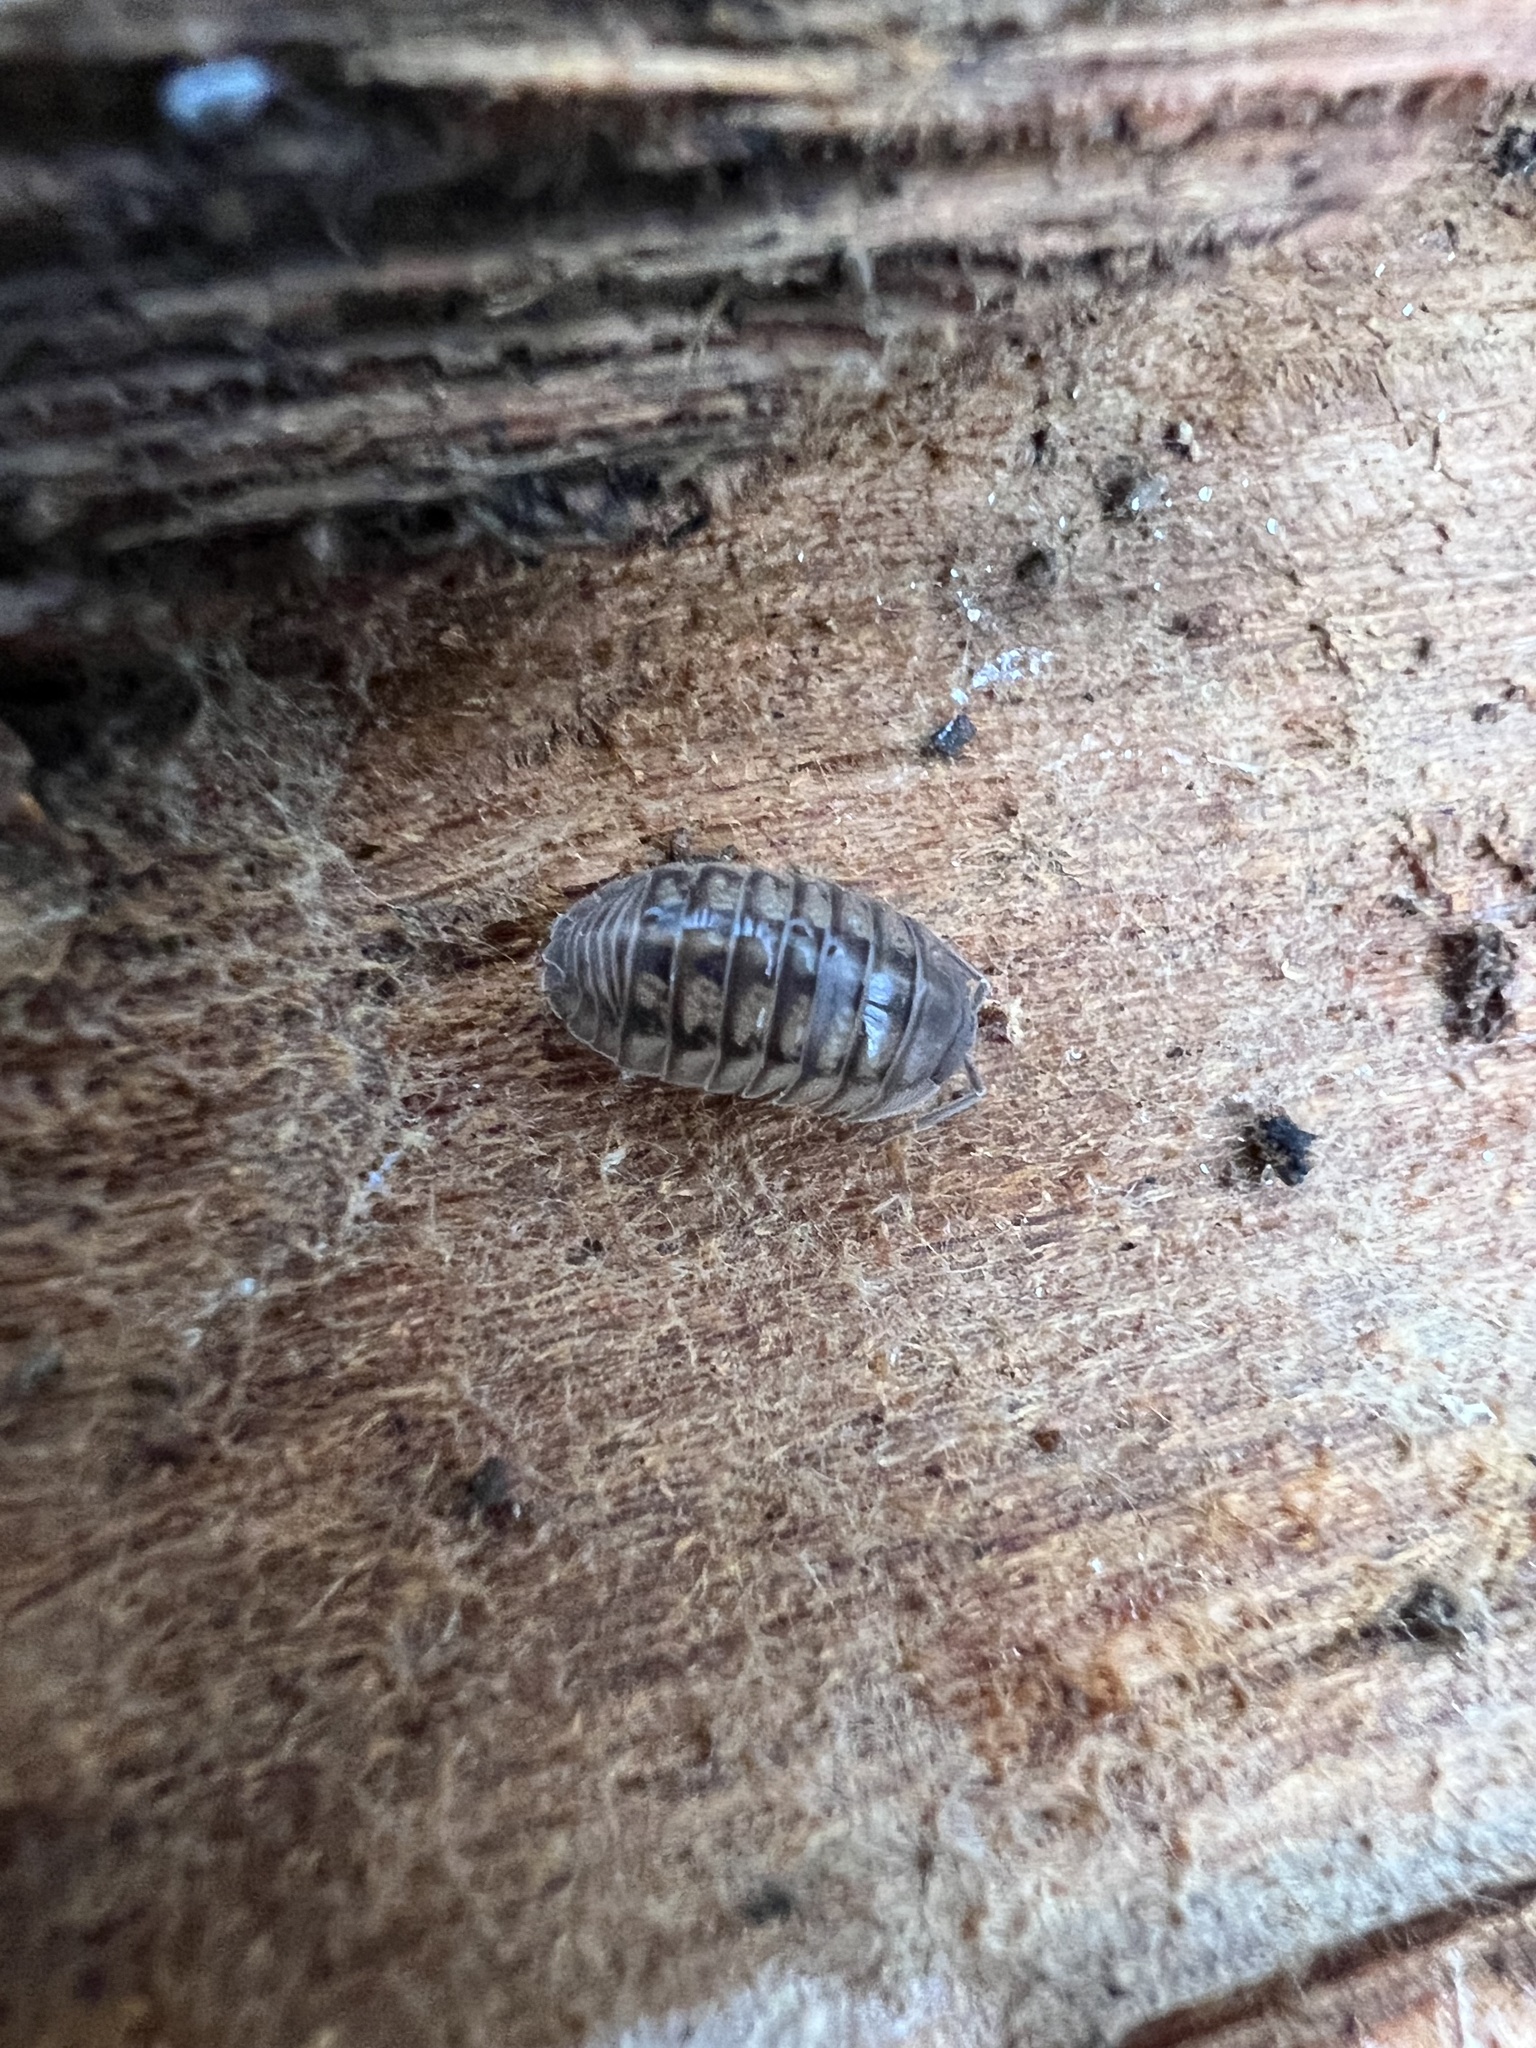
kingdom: Animalia
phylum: Arthropoda
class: Malacostraca
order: Isopoda
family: Armadillidiidae
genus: Armadillidium
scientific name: Armadillidium nasatum
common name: Isopod
